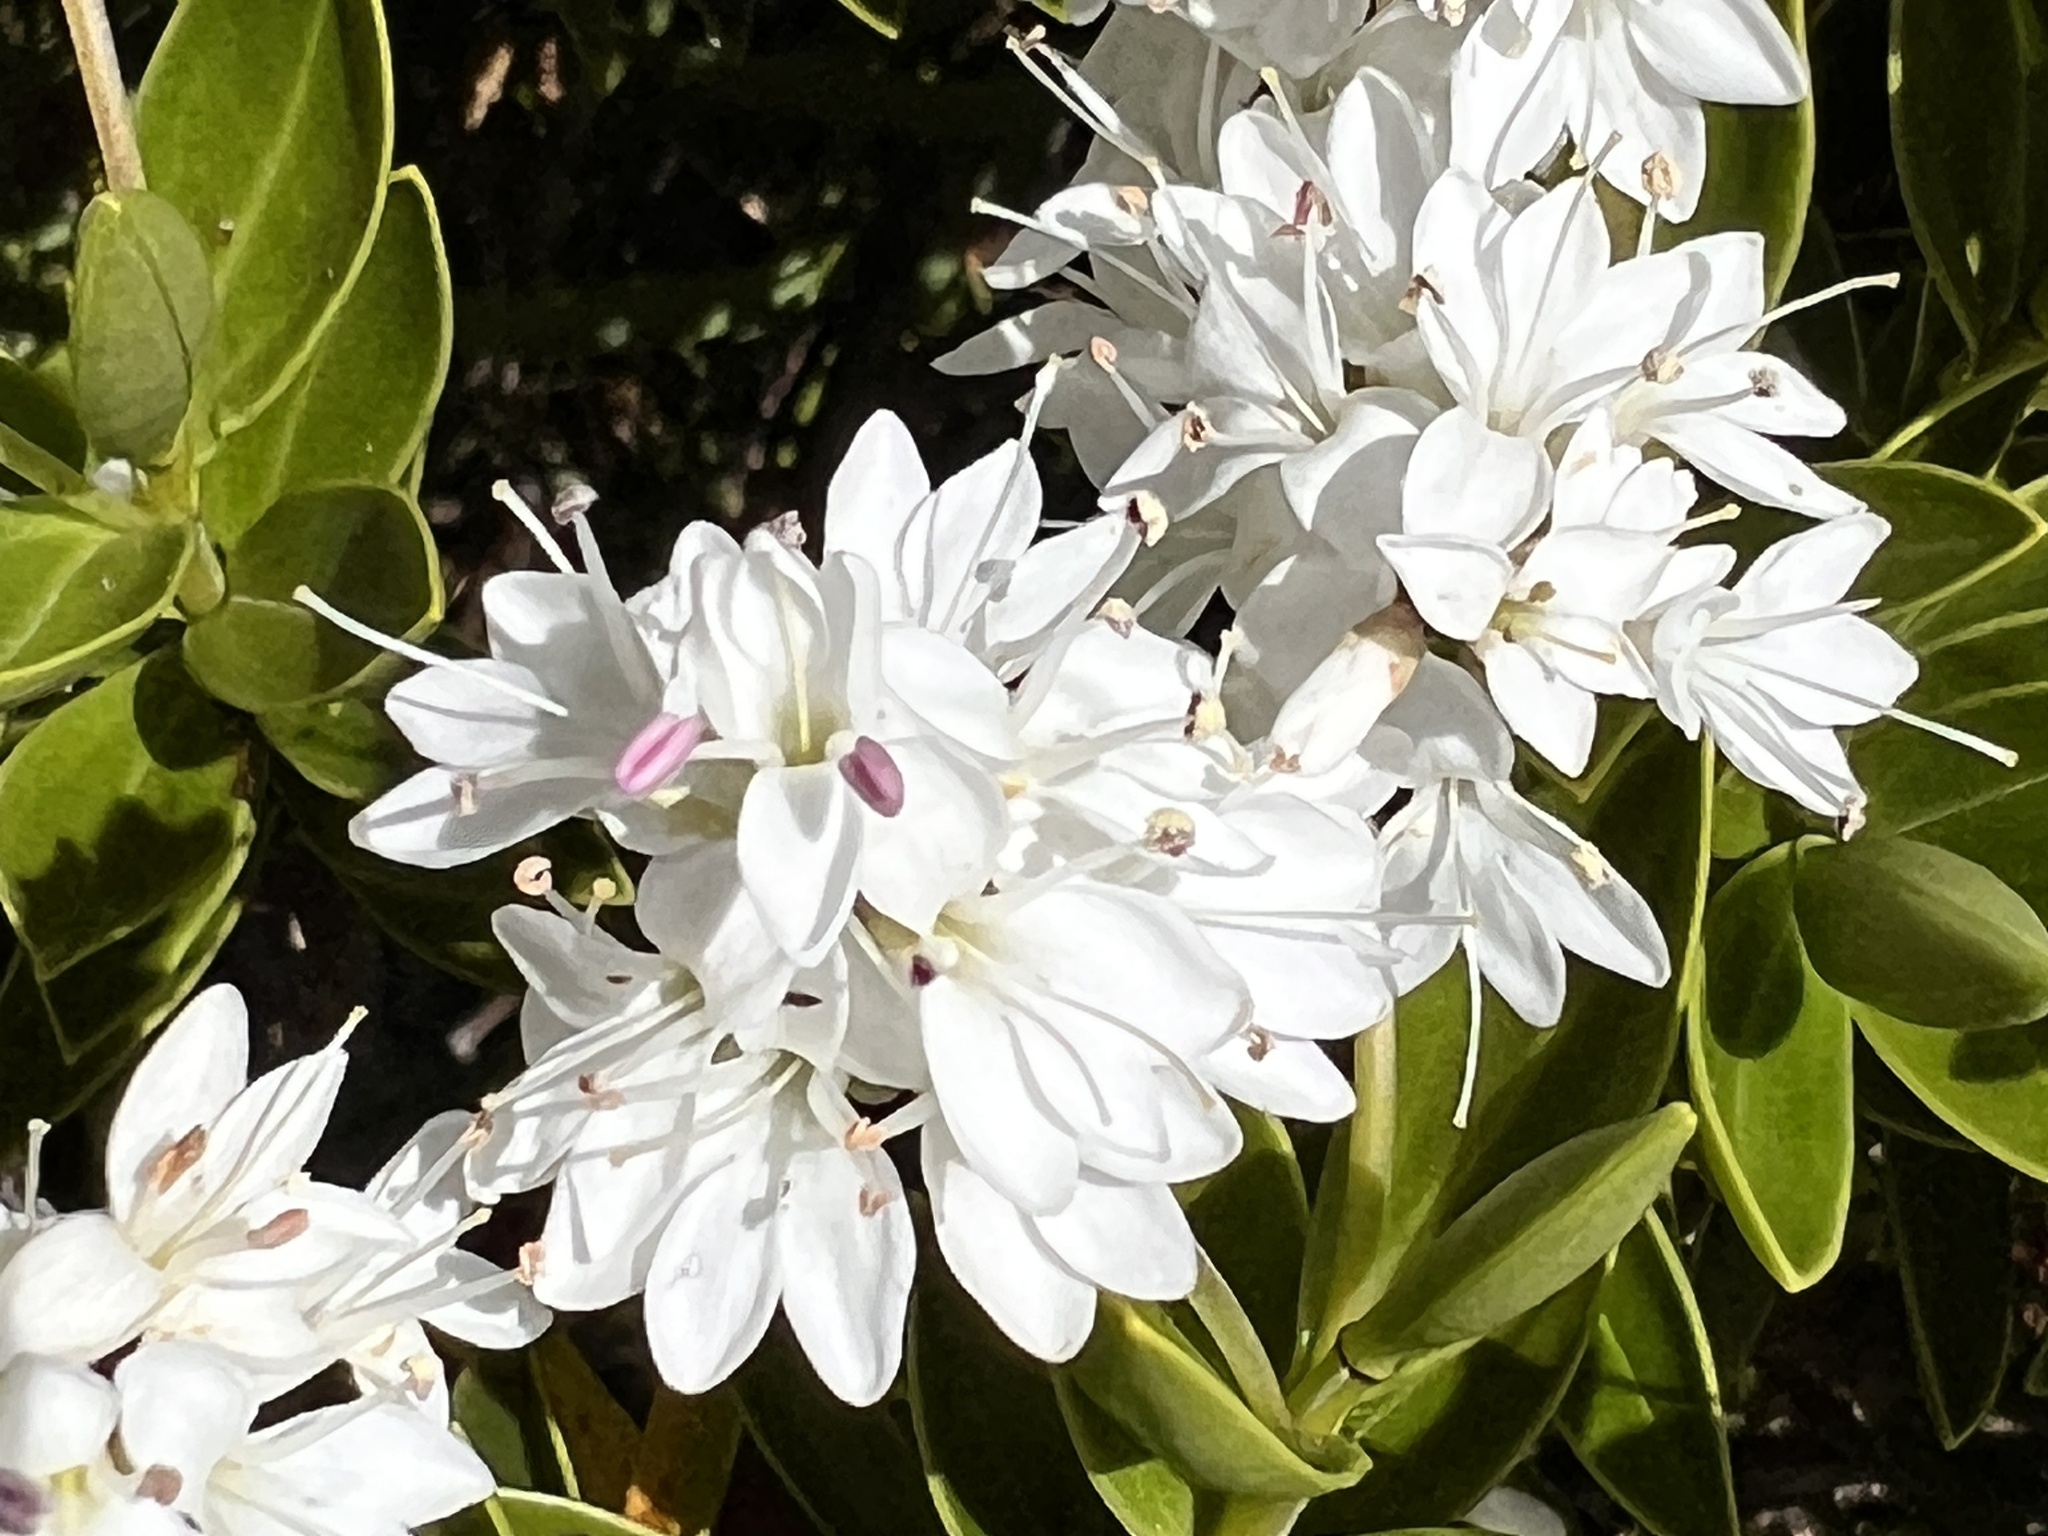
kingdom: Plantae
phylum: Tracheophyta
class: Magnoliopsida
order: Lamiales
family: Plantaginaceae
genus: Veronica
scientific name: Veronica subalpina
